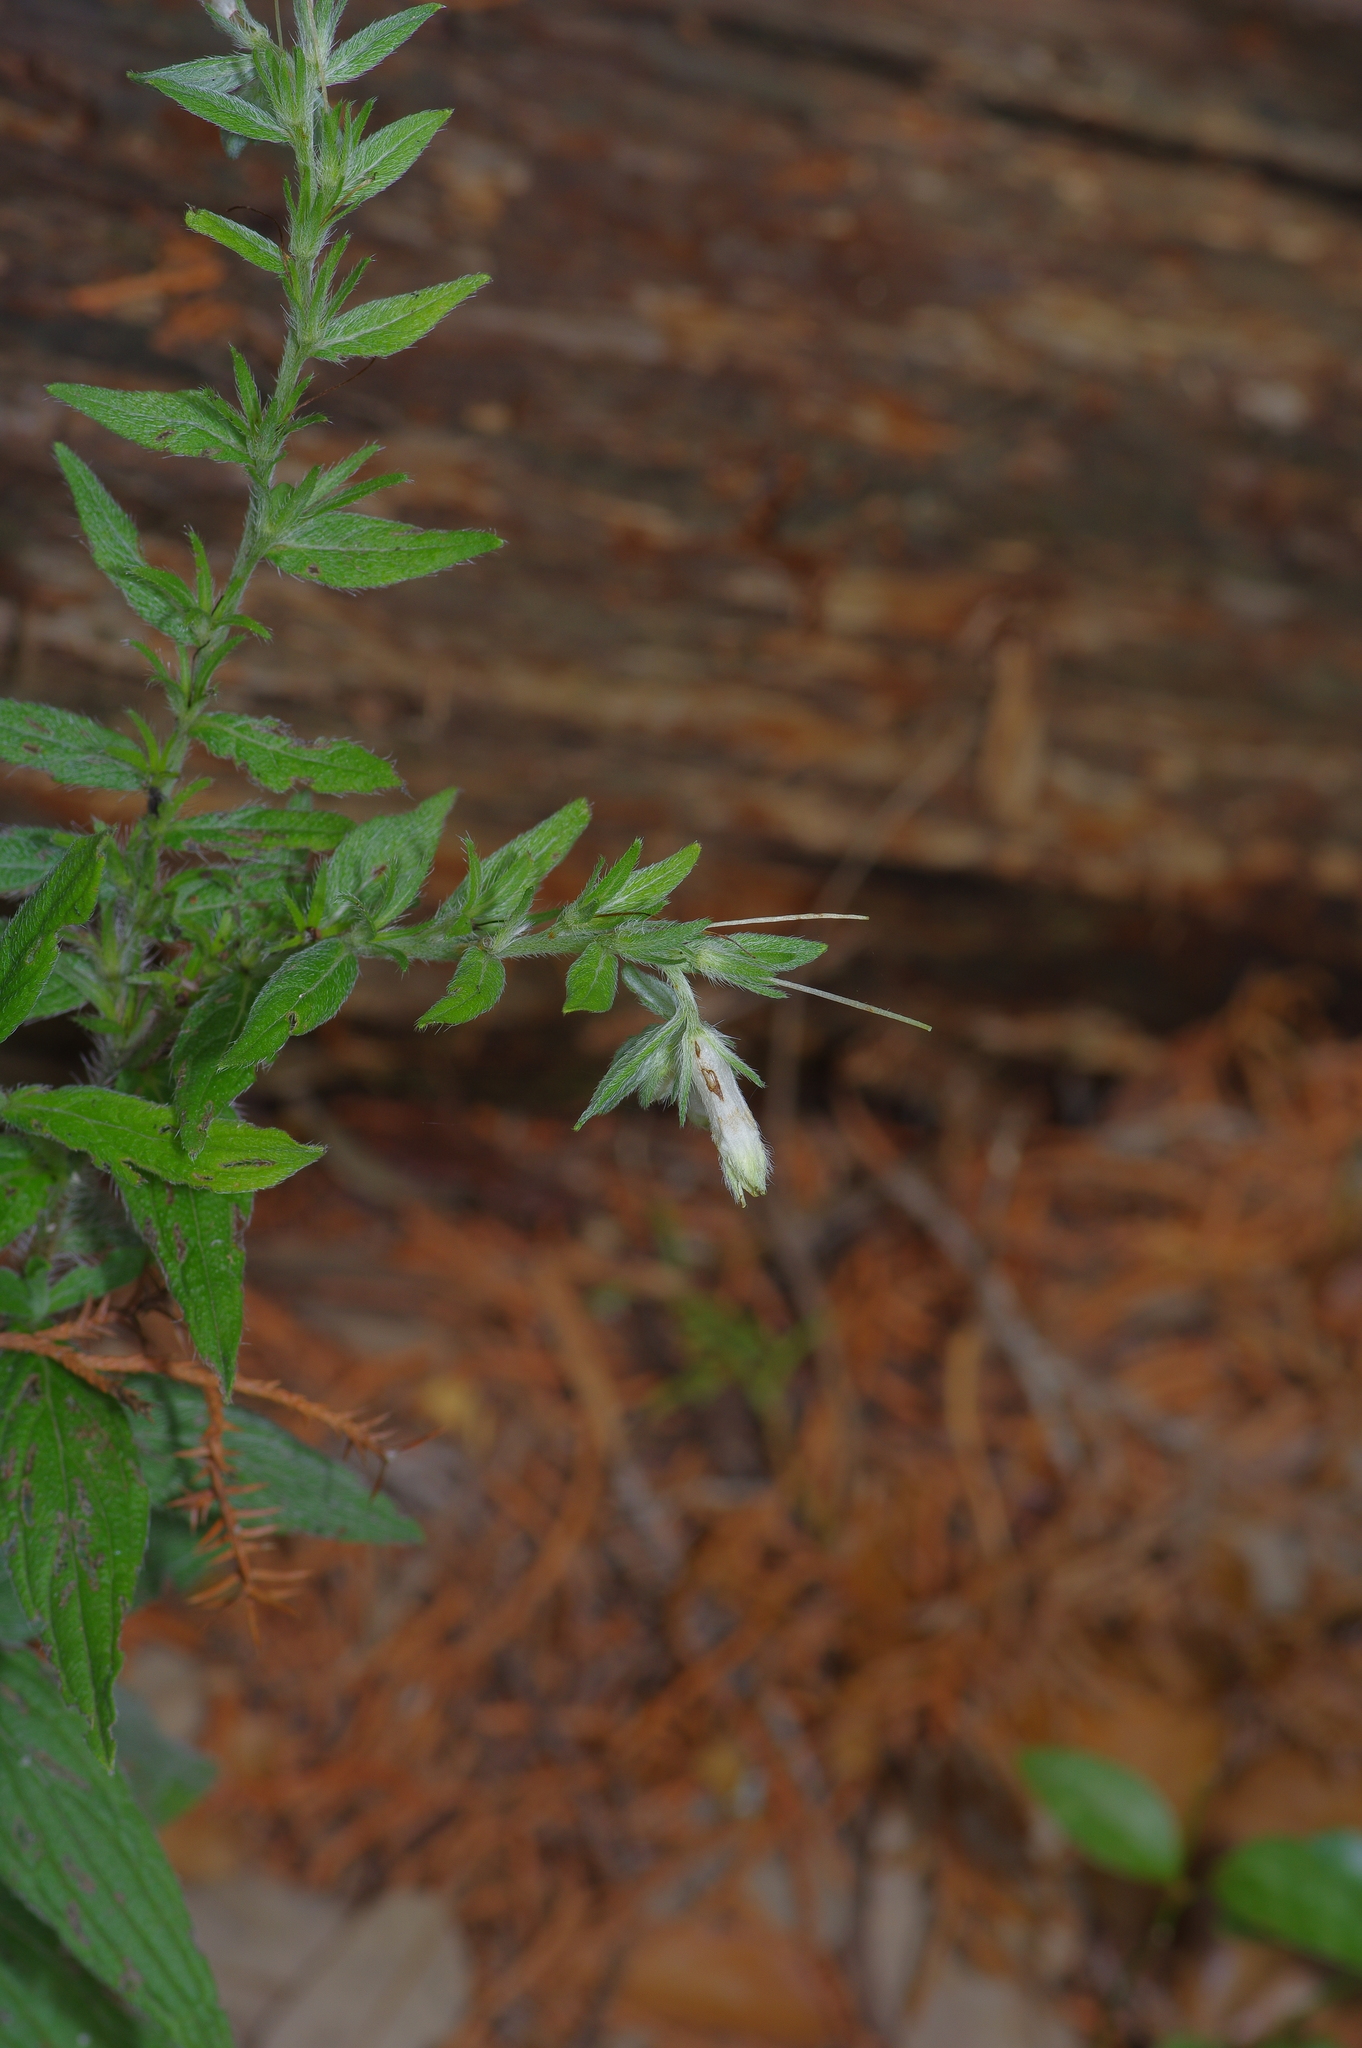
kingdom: Plantae
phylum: Tracheophyta
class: Magnoliopsida
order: Boraginales
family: Boraginaceae
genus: Lithospermum
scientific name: Lithospermum caroliniense
